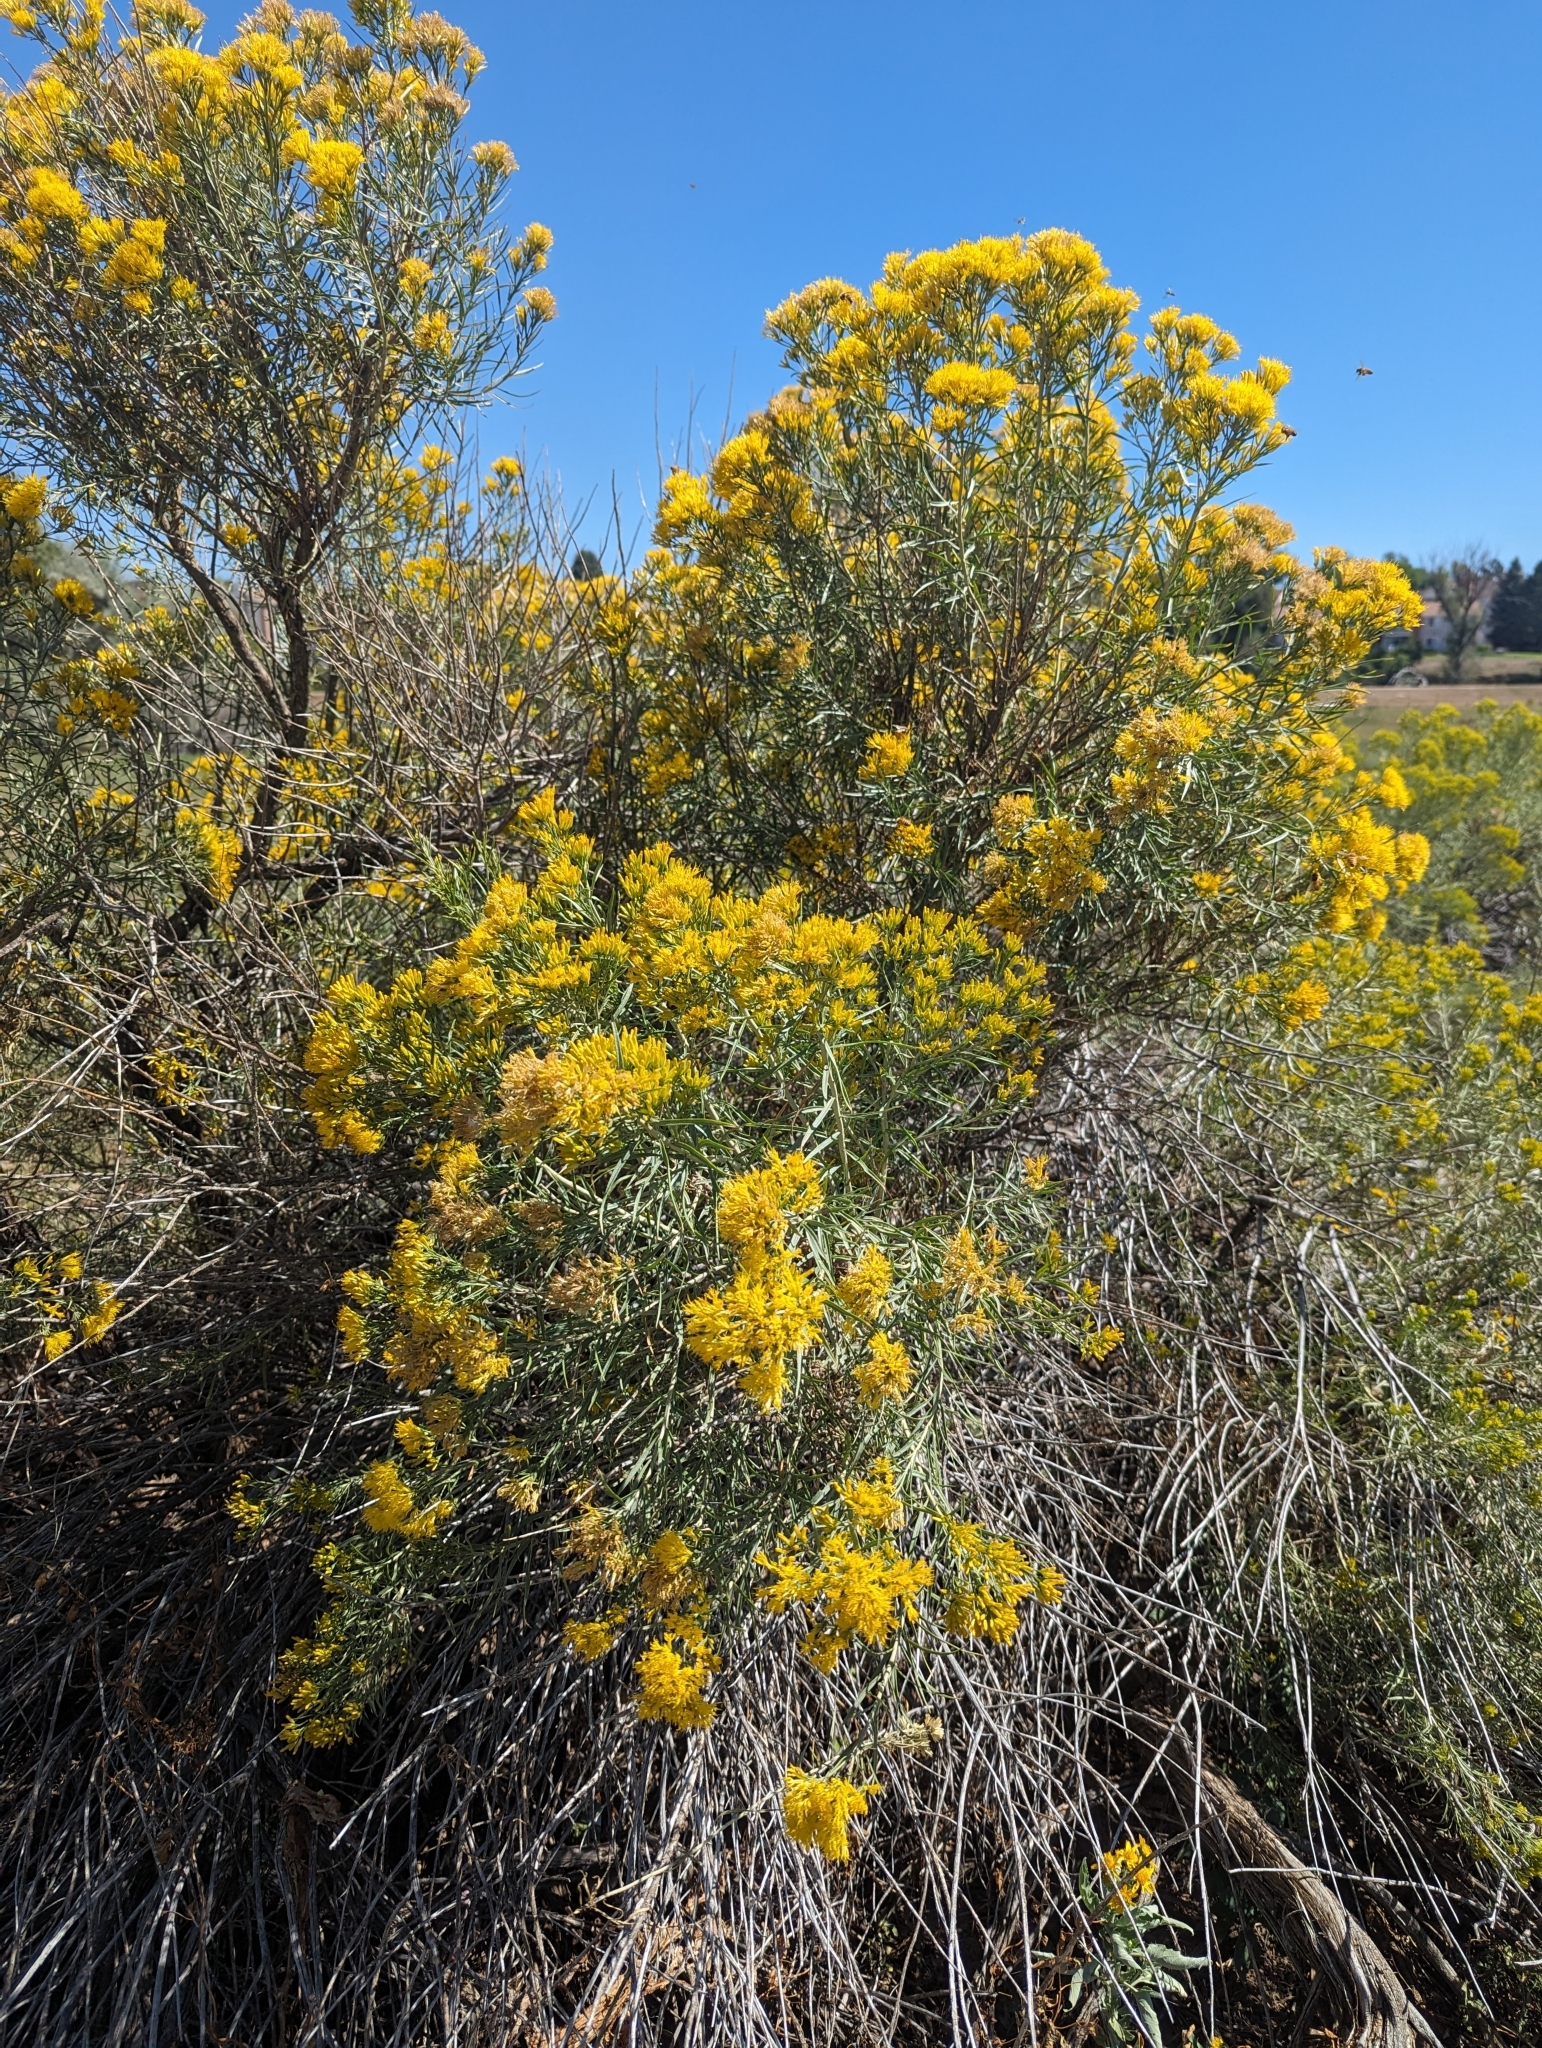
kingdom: Plantae
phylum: Tracheophyta
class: Magnoliopsida
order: Asterales
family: Asteraceae
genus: Ericameria
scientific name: Ericameria nauseosa
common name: Rubber rabbitbrush
